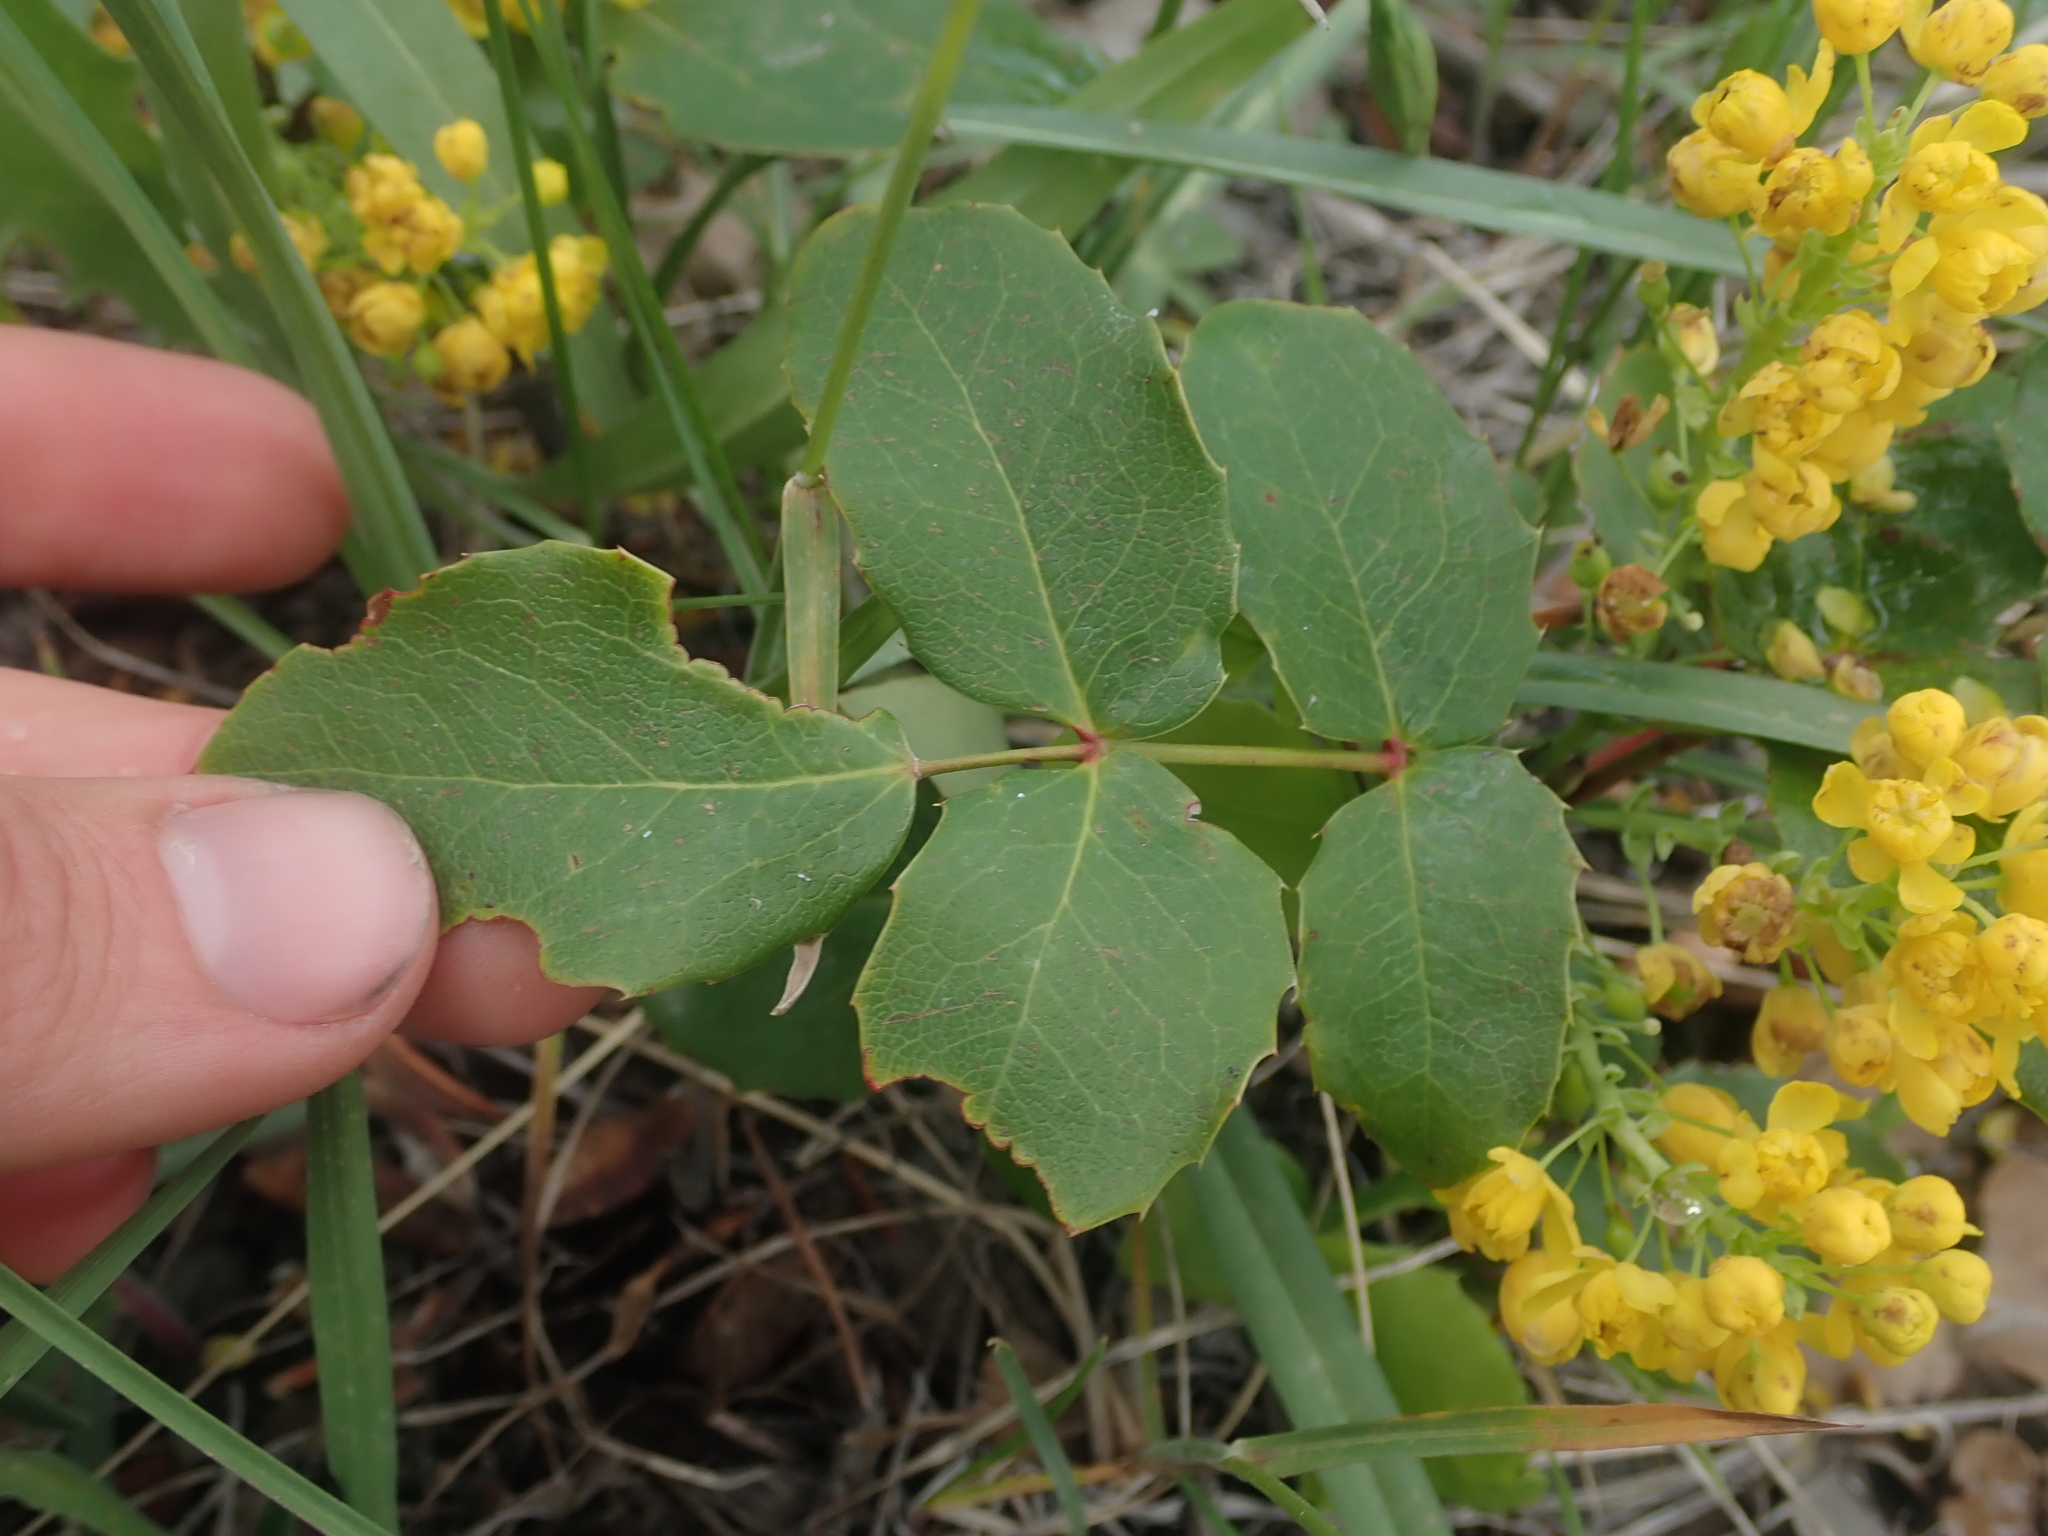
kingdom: Plantae
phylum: Tracheophyta
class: Magnoliopsida
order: Ranunculales
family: Berberidaceae
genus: Mahonia
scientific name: Mahonia repens
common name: Creeping oregon-grape
